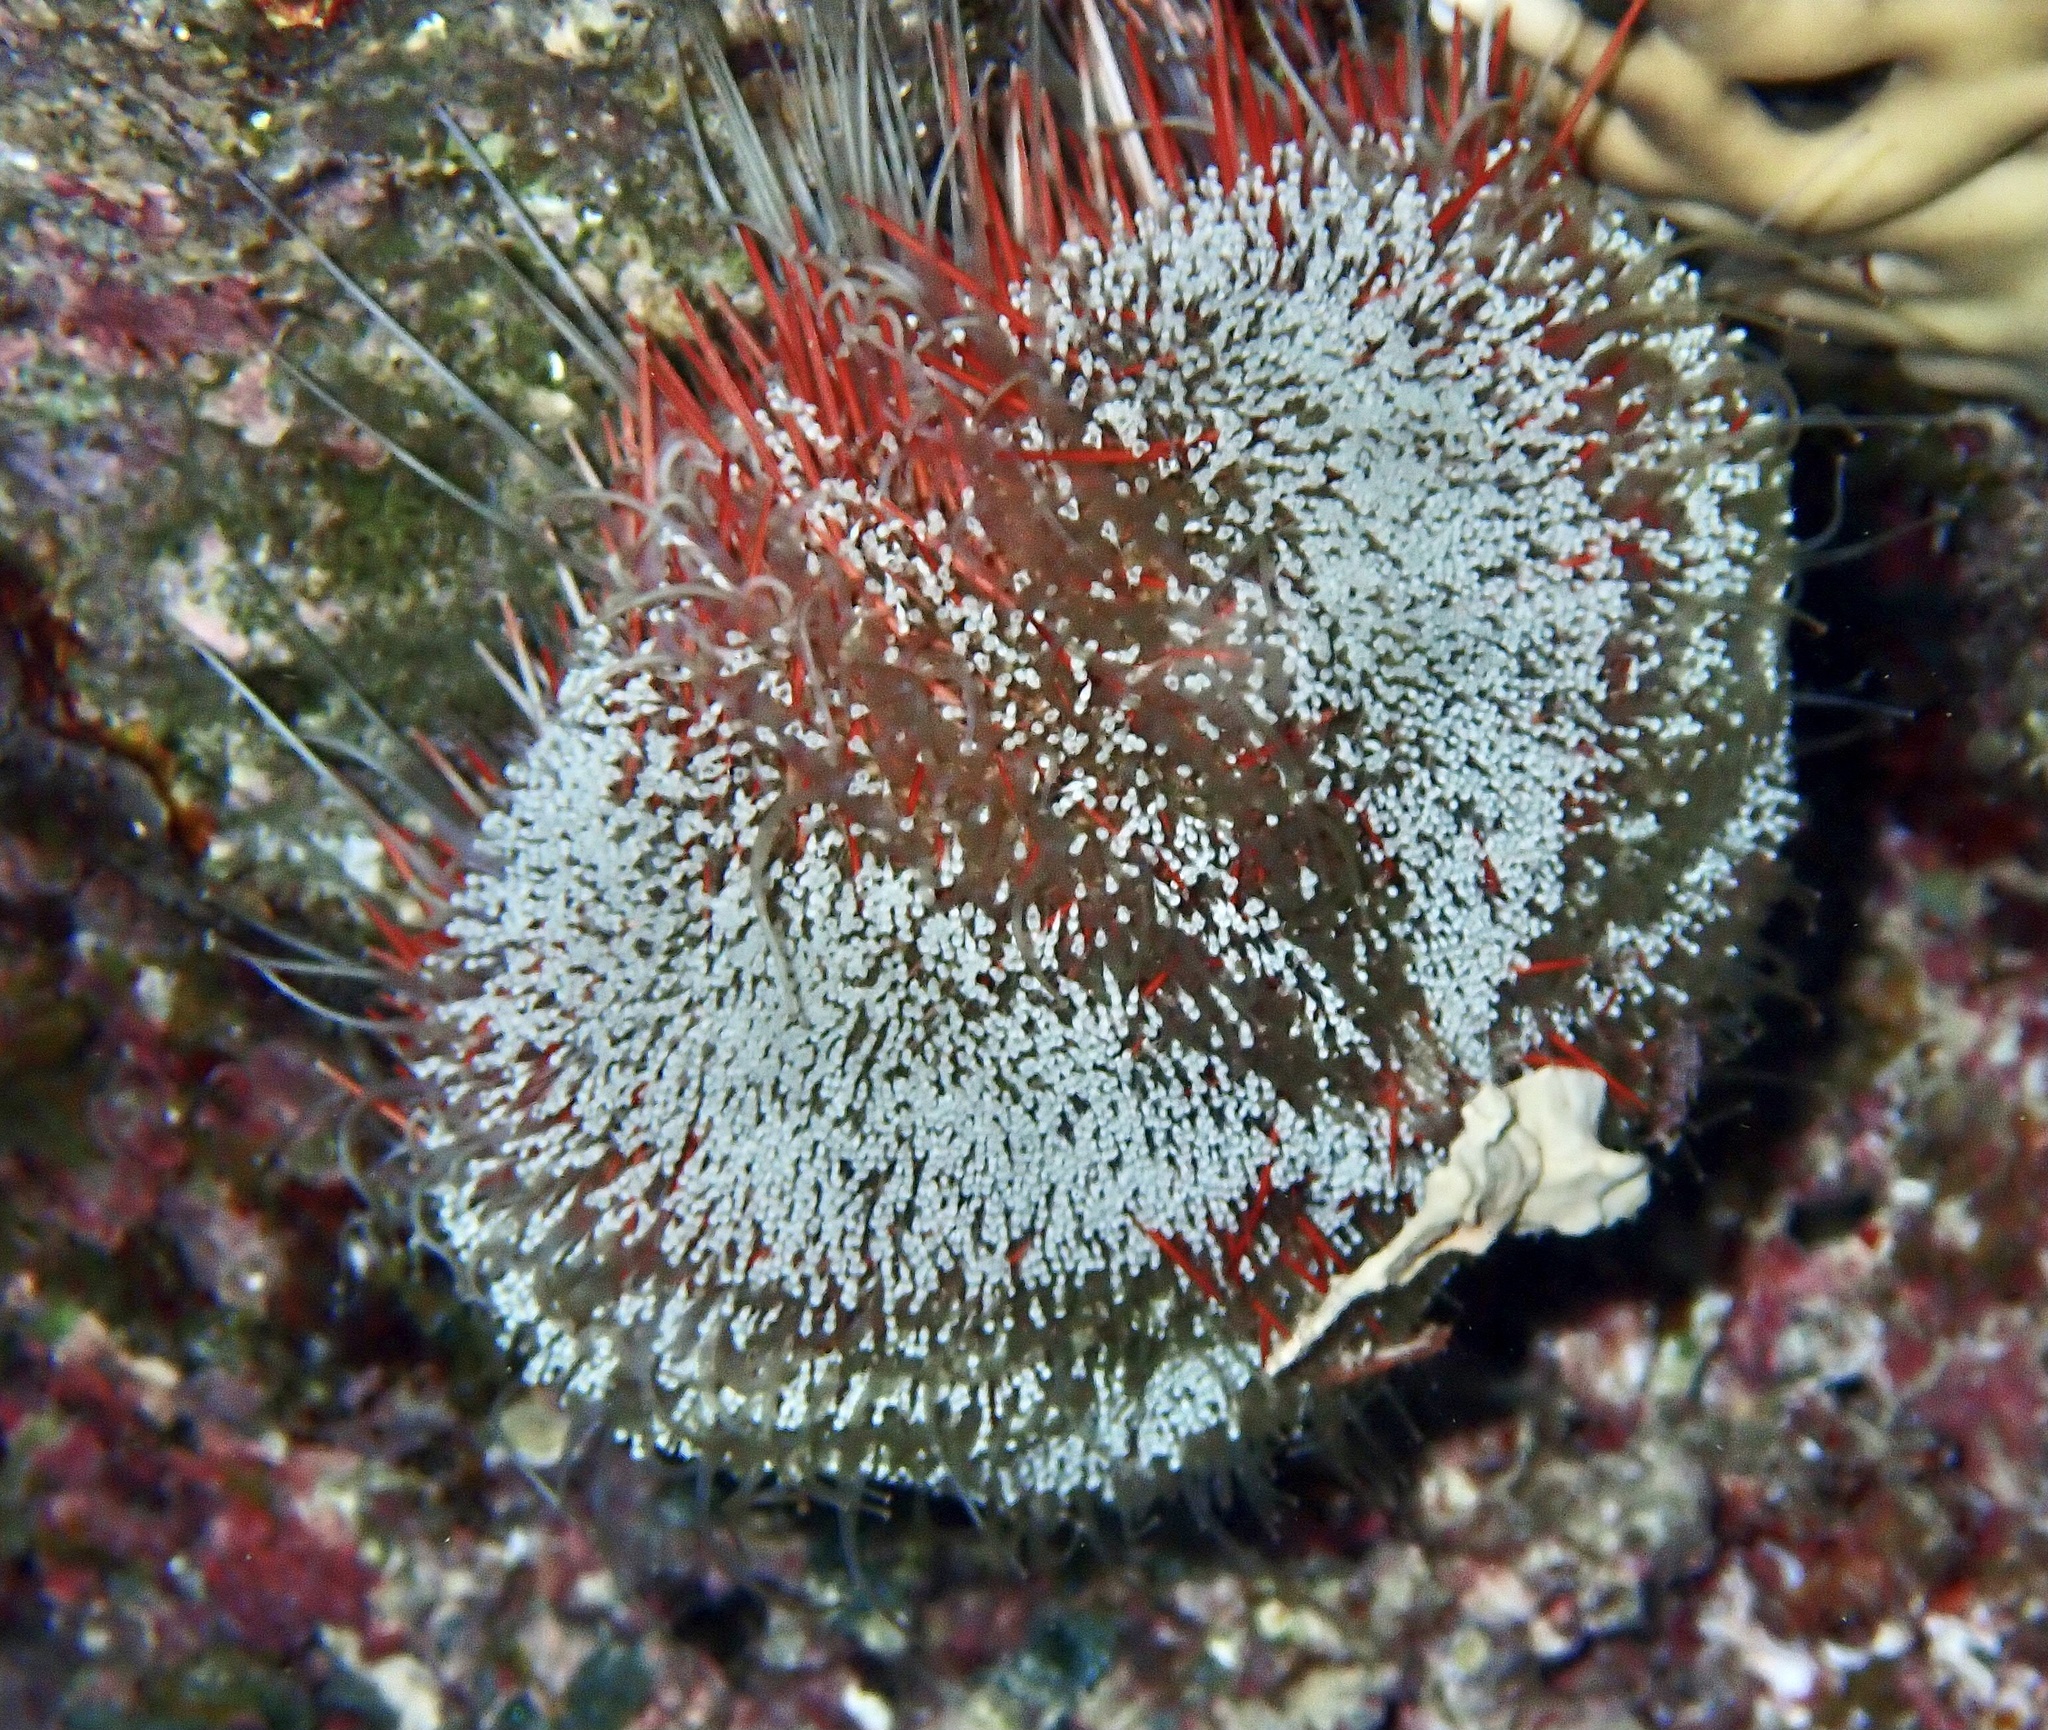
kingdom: Animalia
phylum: Echinodermata
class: Echinoidea
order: Camarodonta
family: Toxopneustidae
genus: Tripneustes
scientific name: Tripneustes gratilla
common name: Bischofsmützenseeigel
